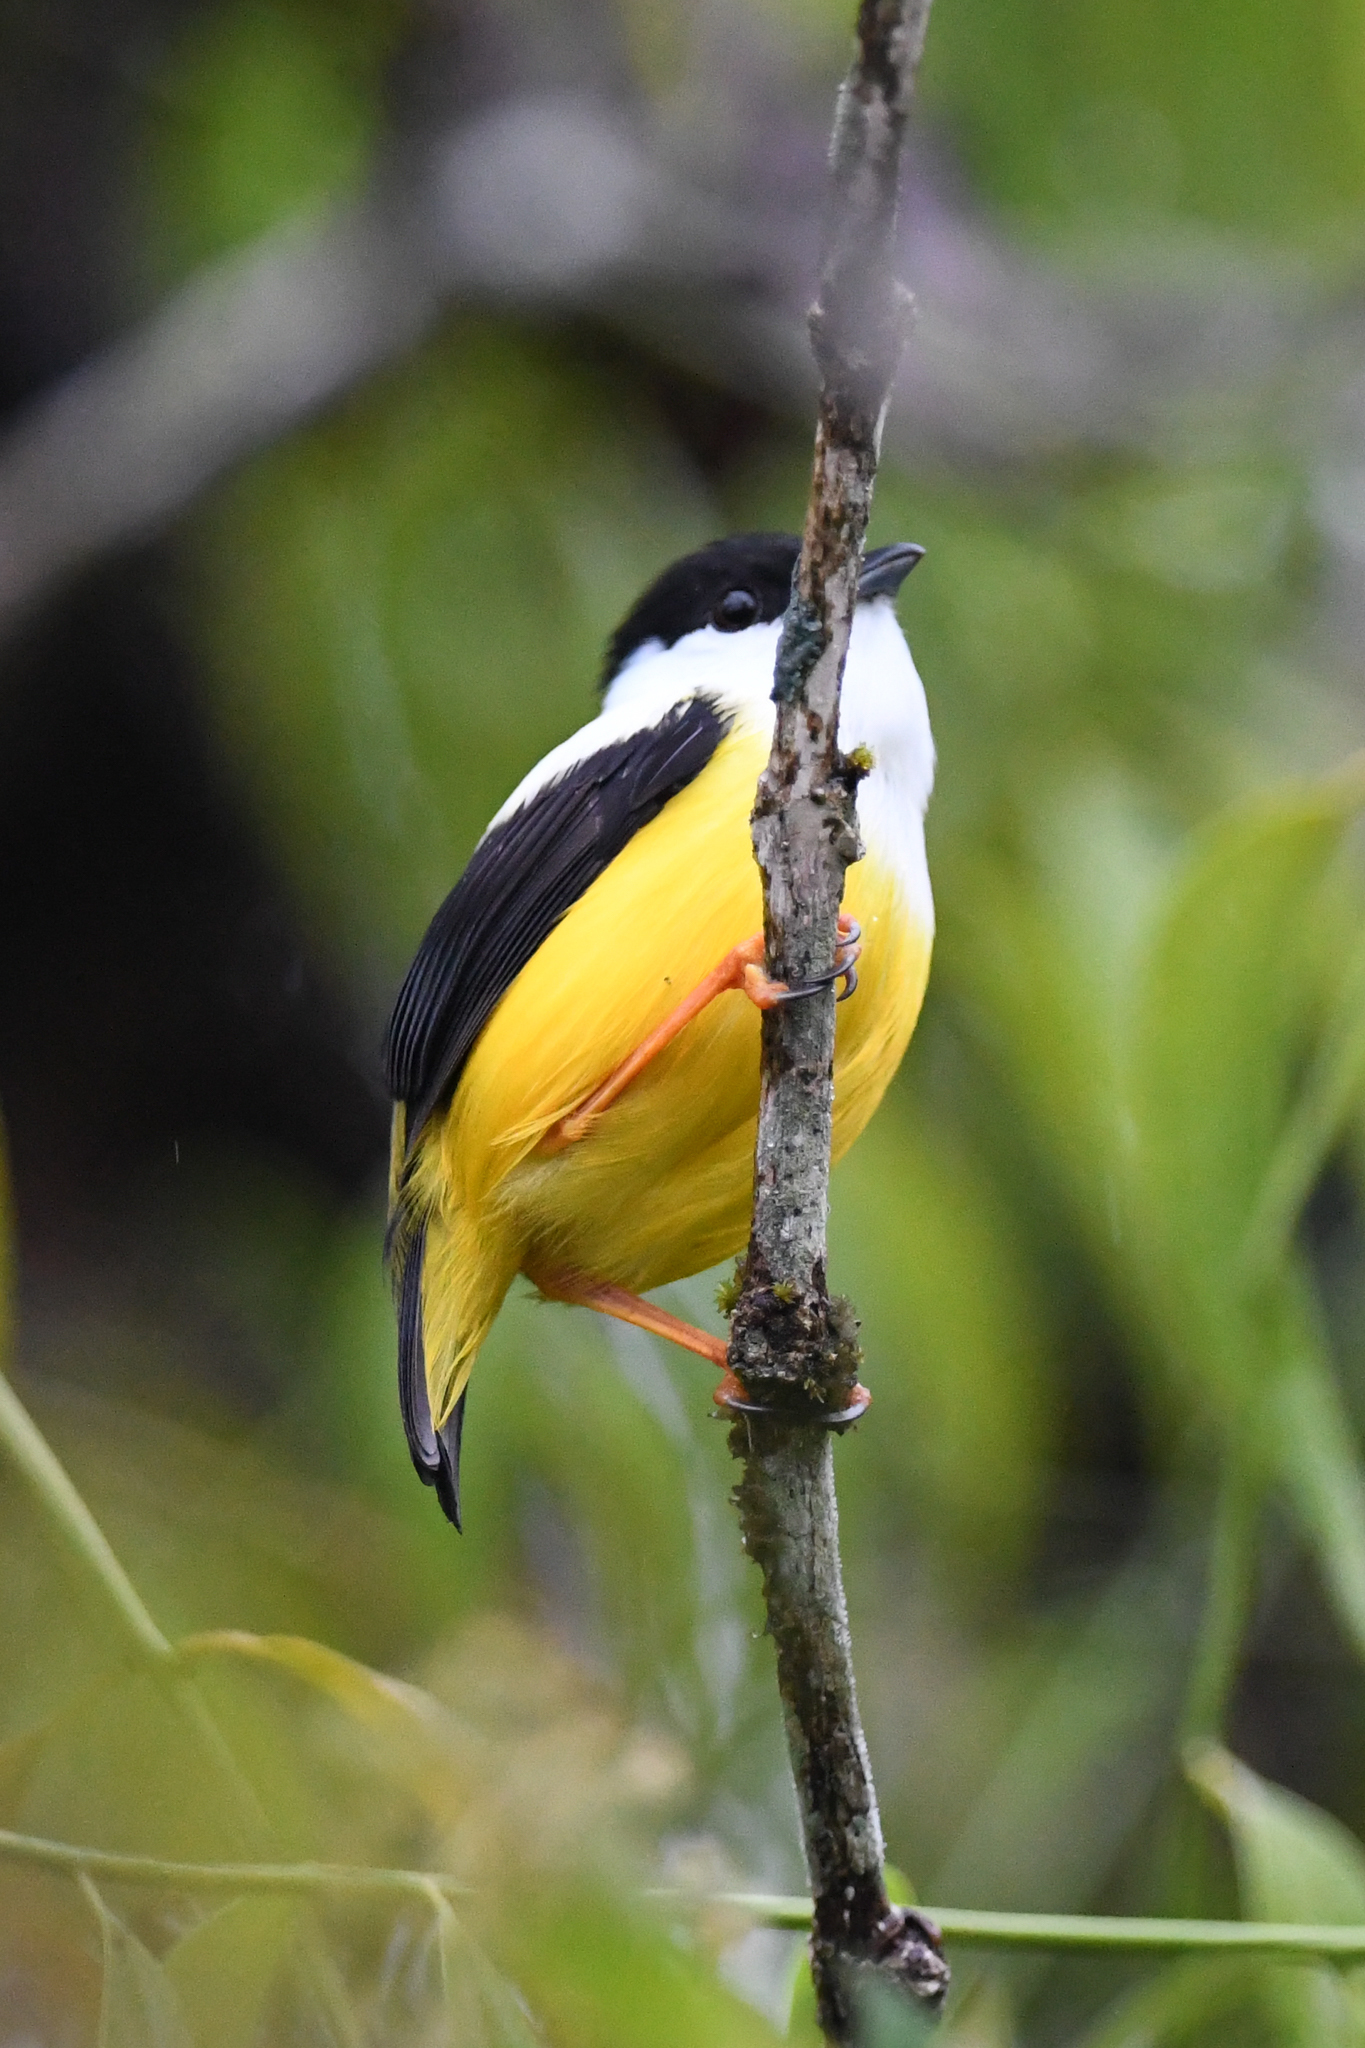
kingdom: Animalia
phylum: Chordata
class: Aves
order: Passeriformes
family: Pipridae
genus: Manacus
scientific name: Manacus candei
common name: White-collared manakin
